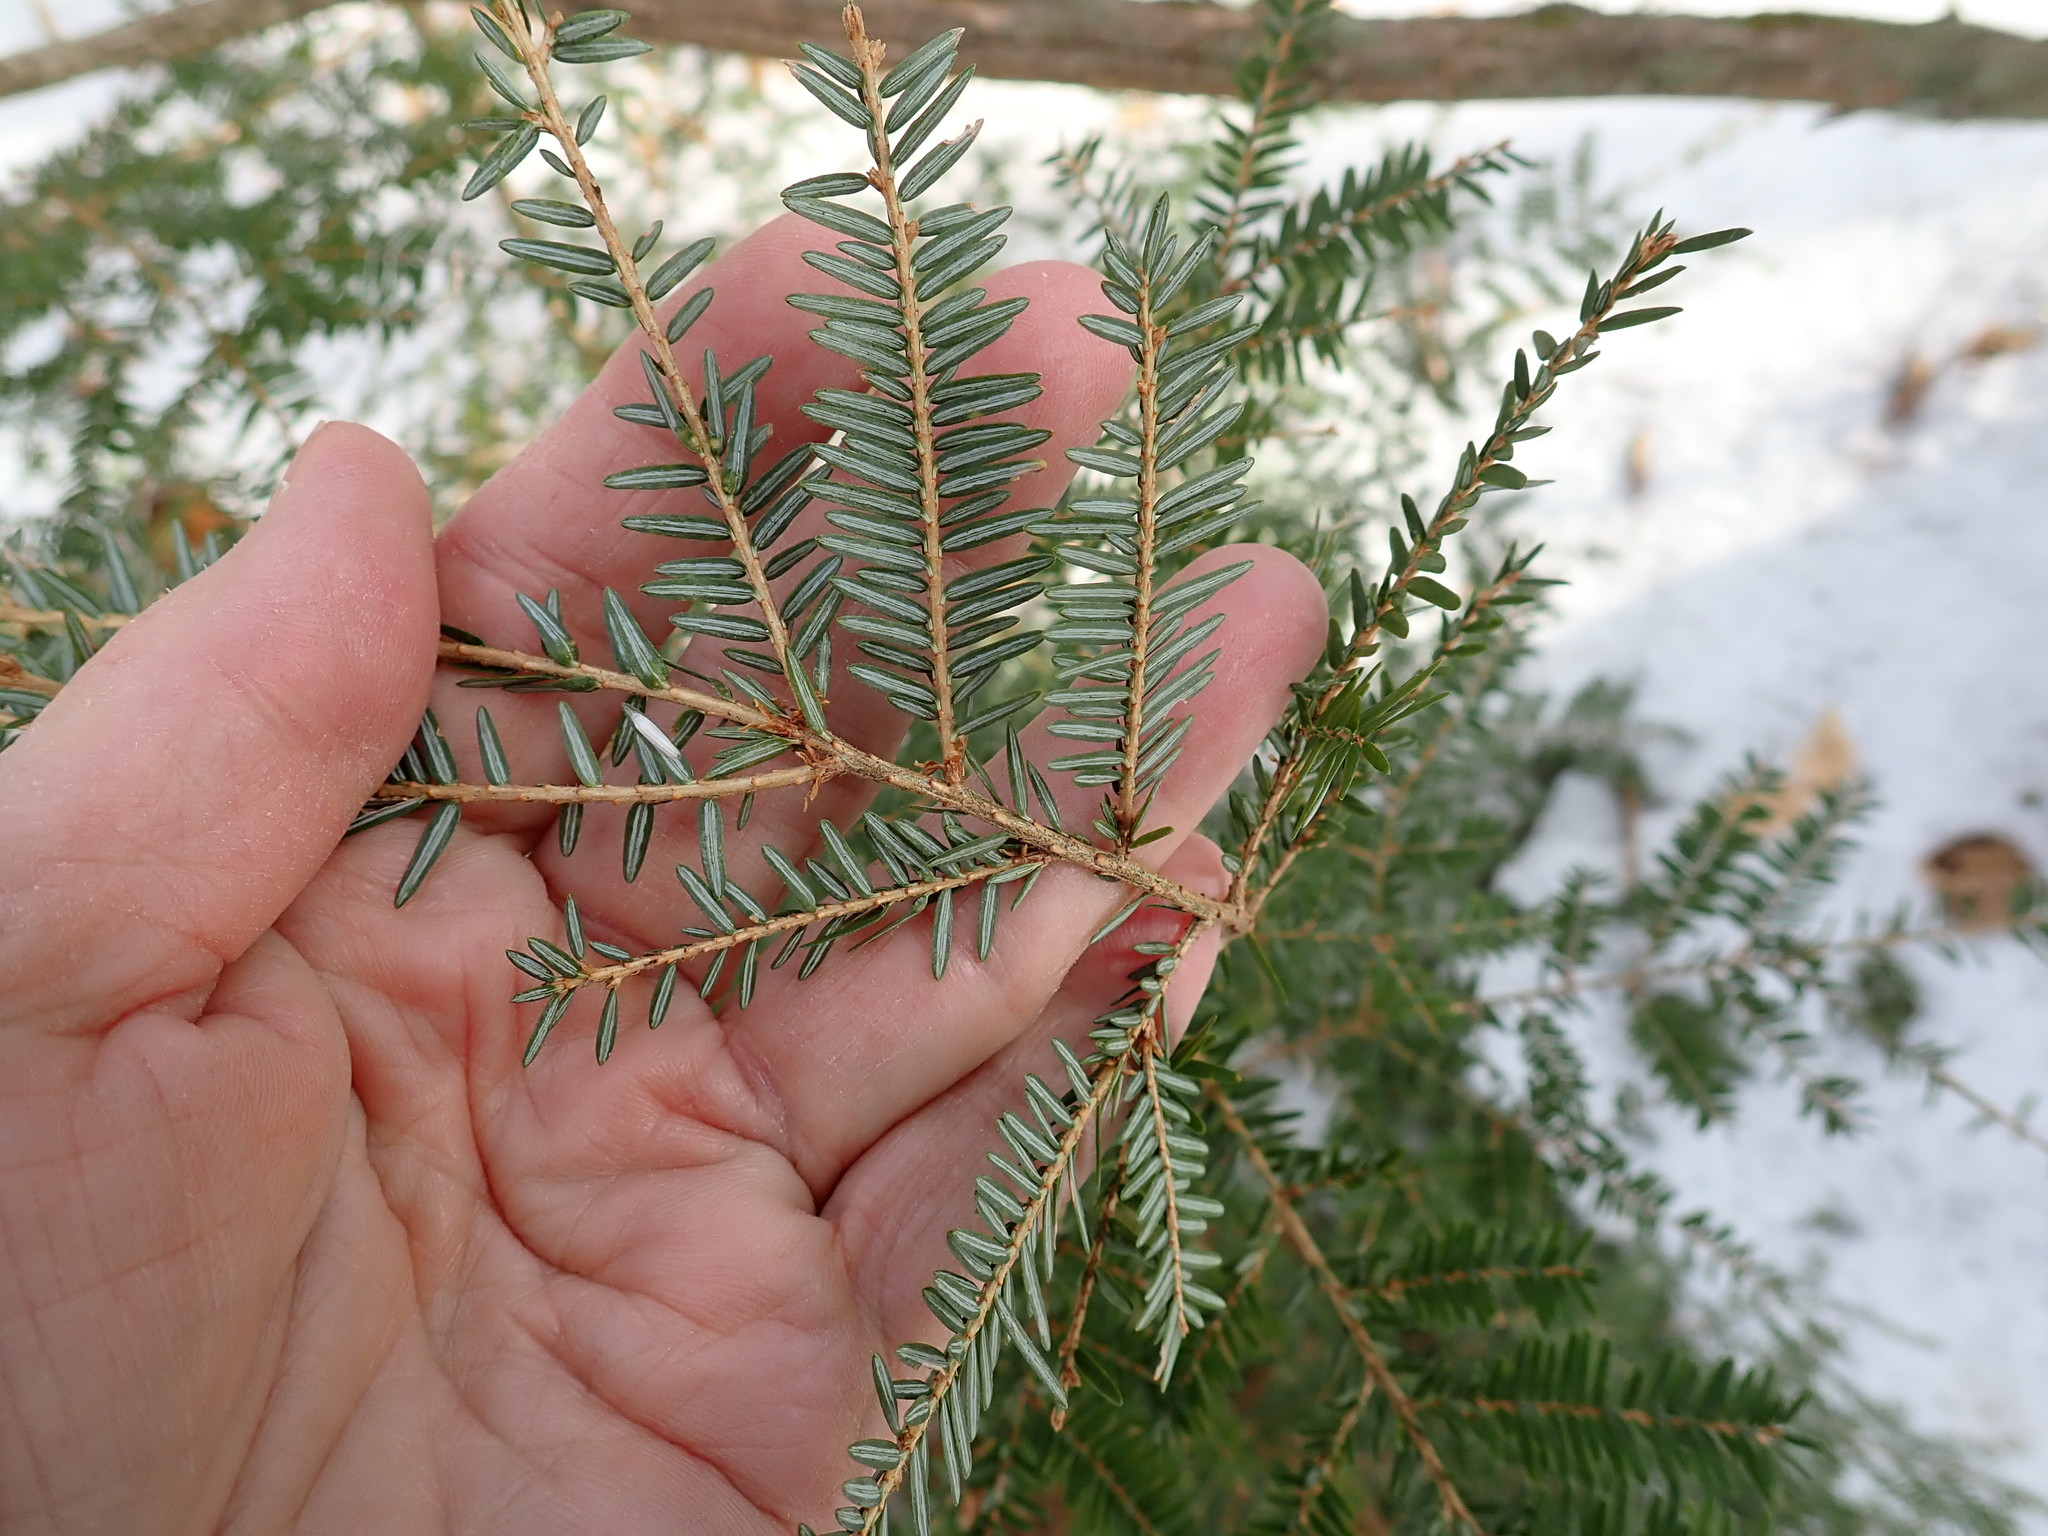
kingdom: Plantae
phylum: Tracheophyta
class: Pinopsida
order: Pinales
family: Pinaceae
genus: Tsuga
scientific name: Tsuga canadensis
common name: Eastern hemlock
